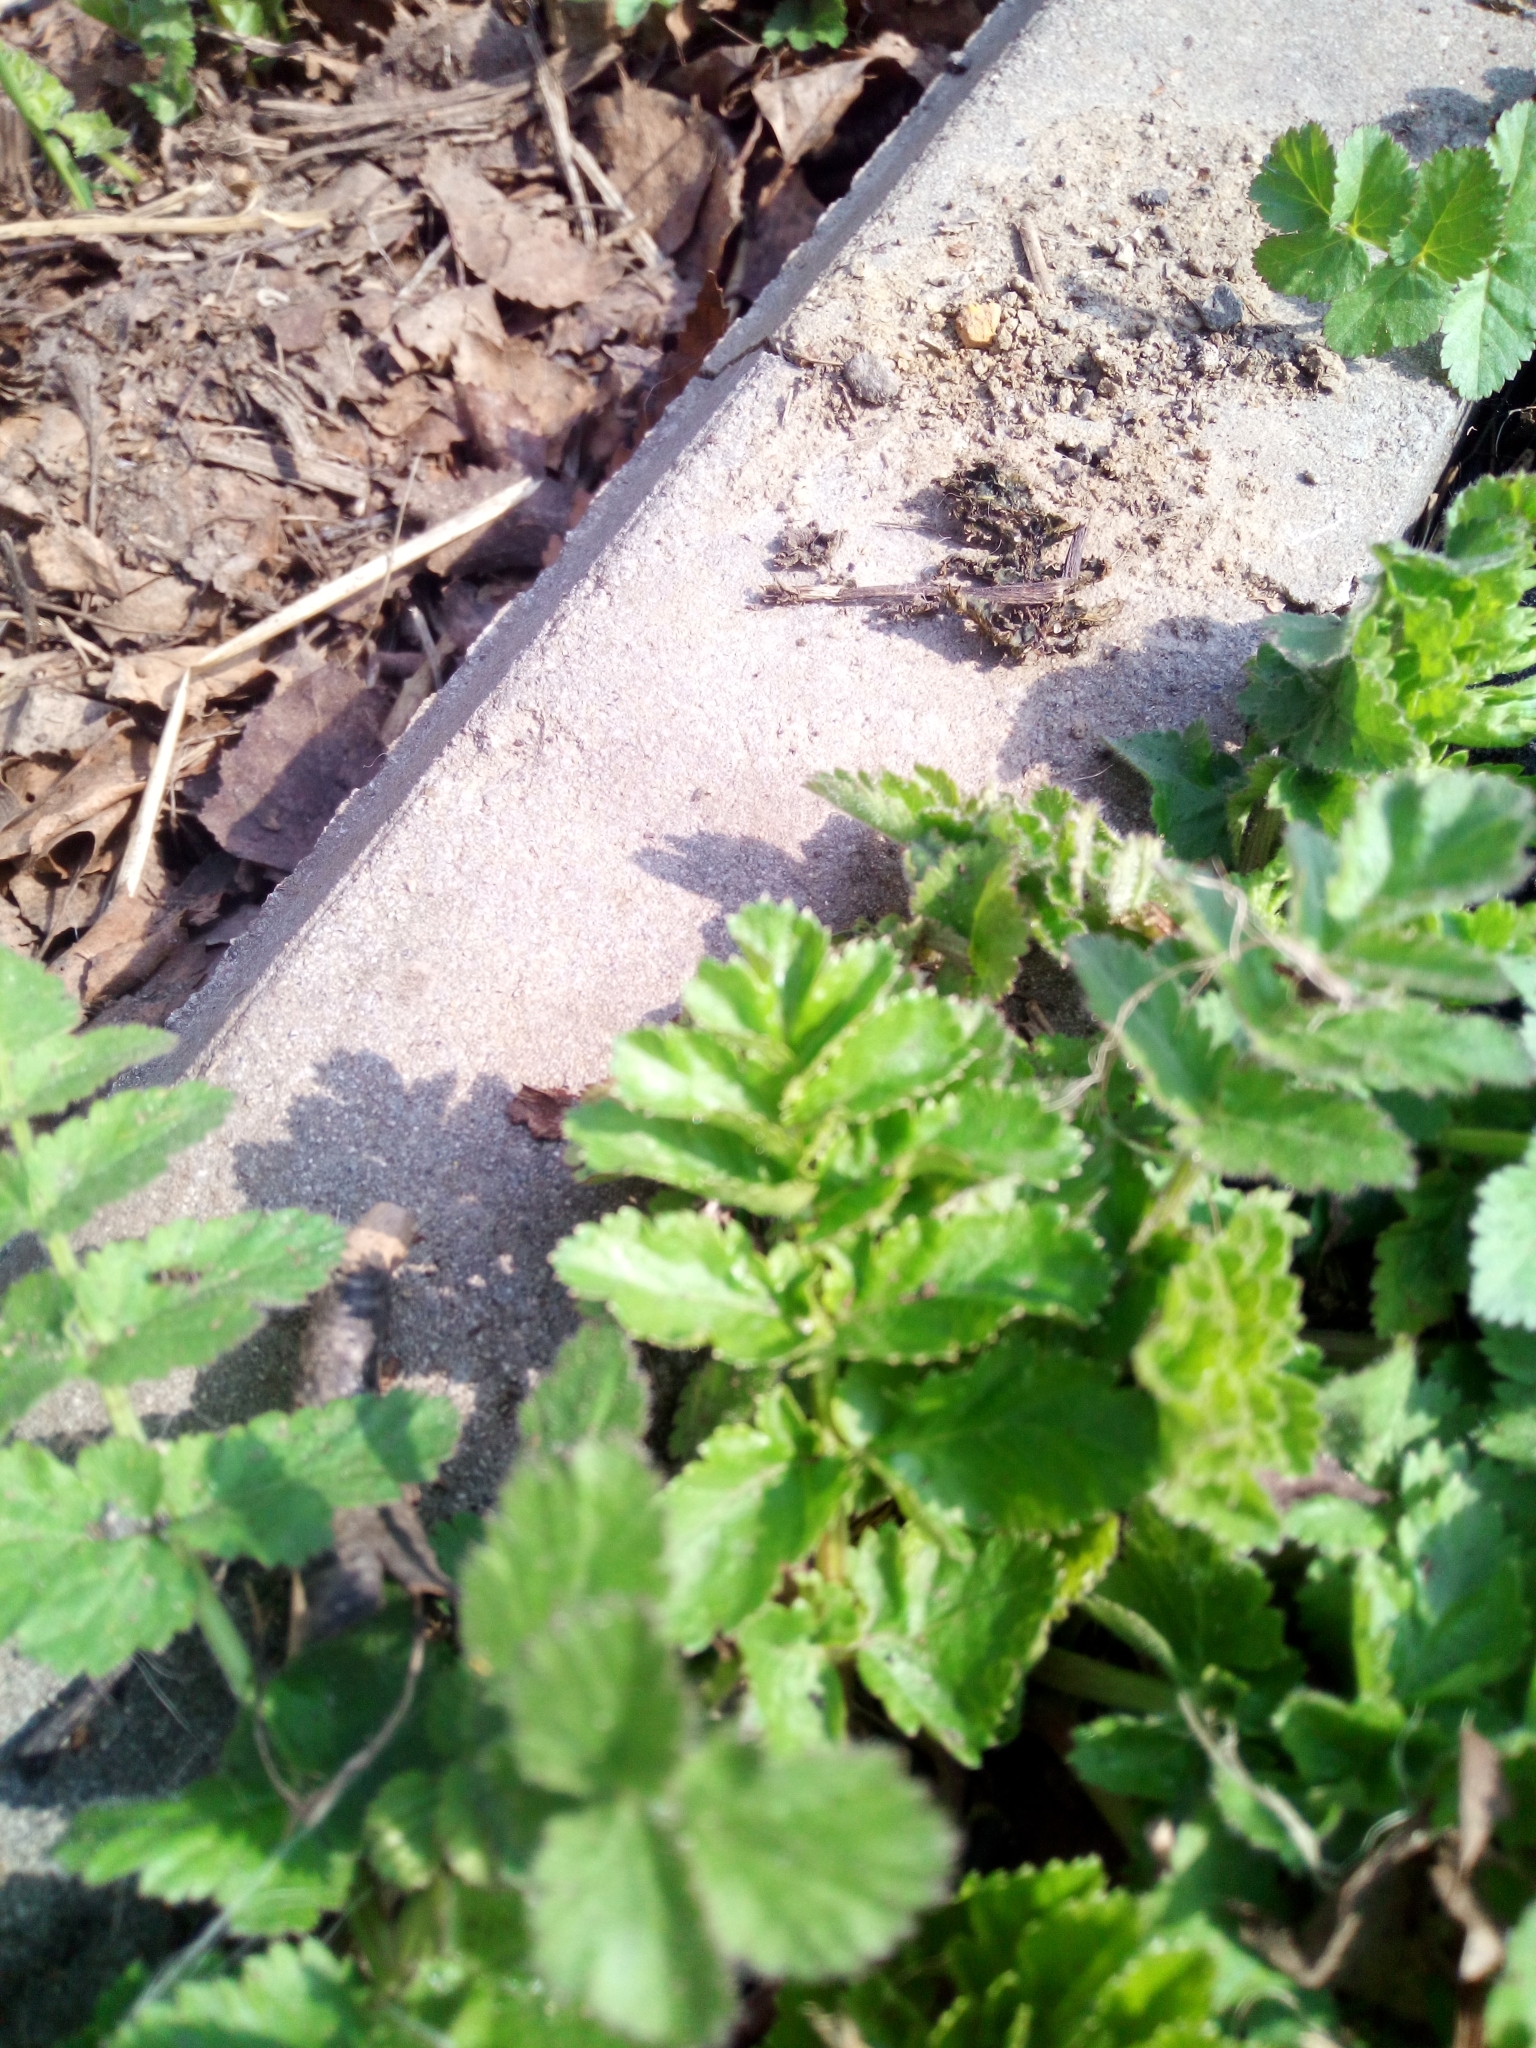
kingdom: Plantae
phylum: Tracheophyta
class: Magnoliopsida
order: Apiales
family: Apiaceae
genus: Pastinaca
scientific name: Pastinaca sativa
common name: Wild parsnip
